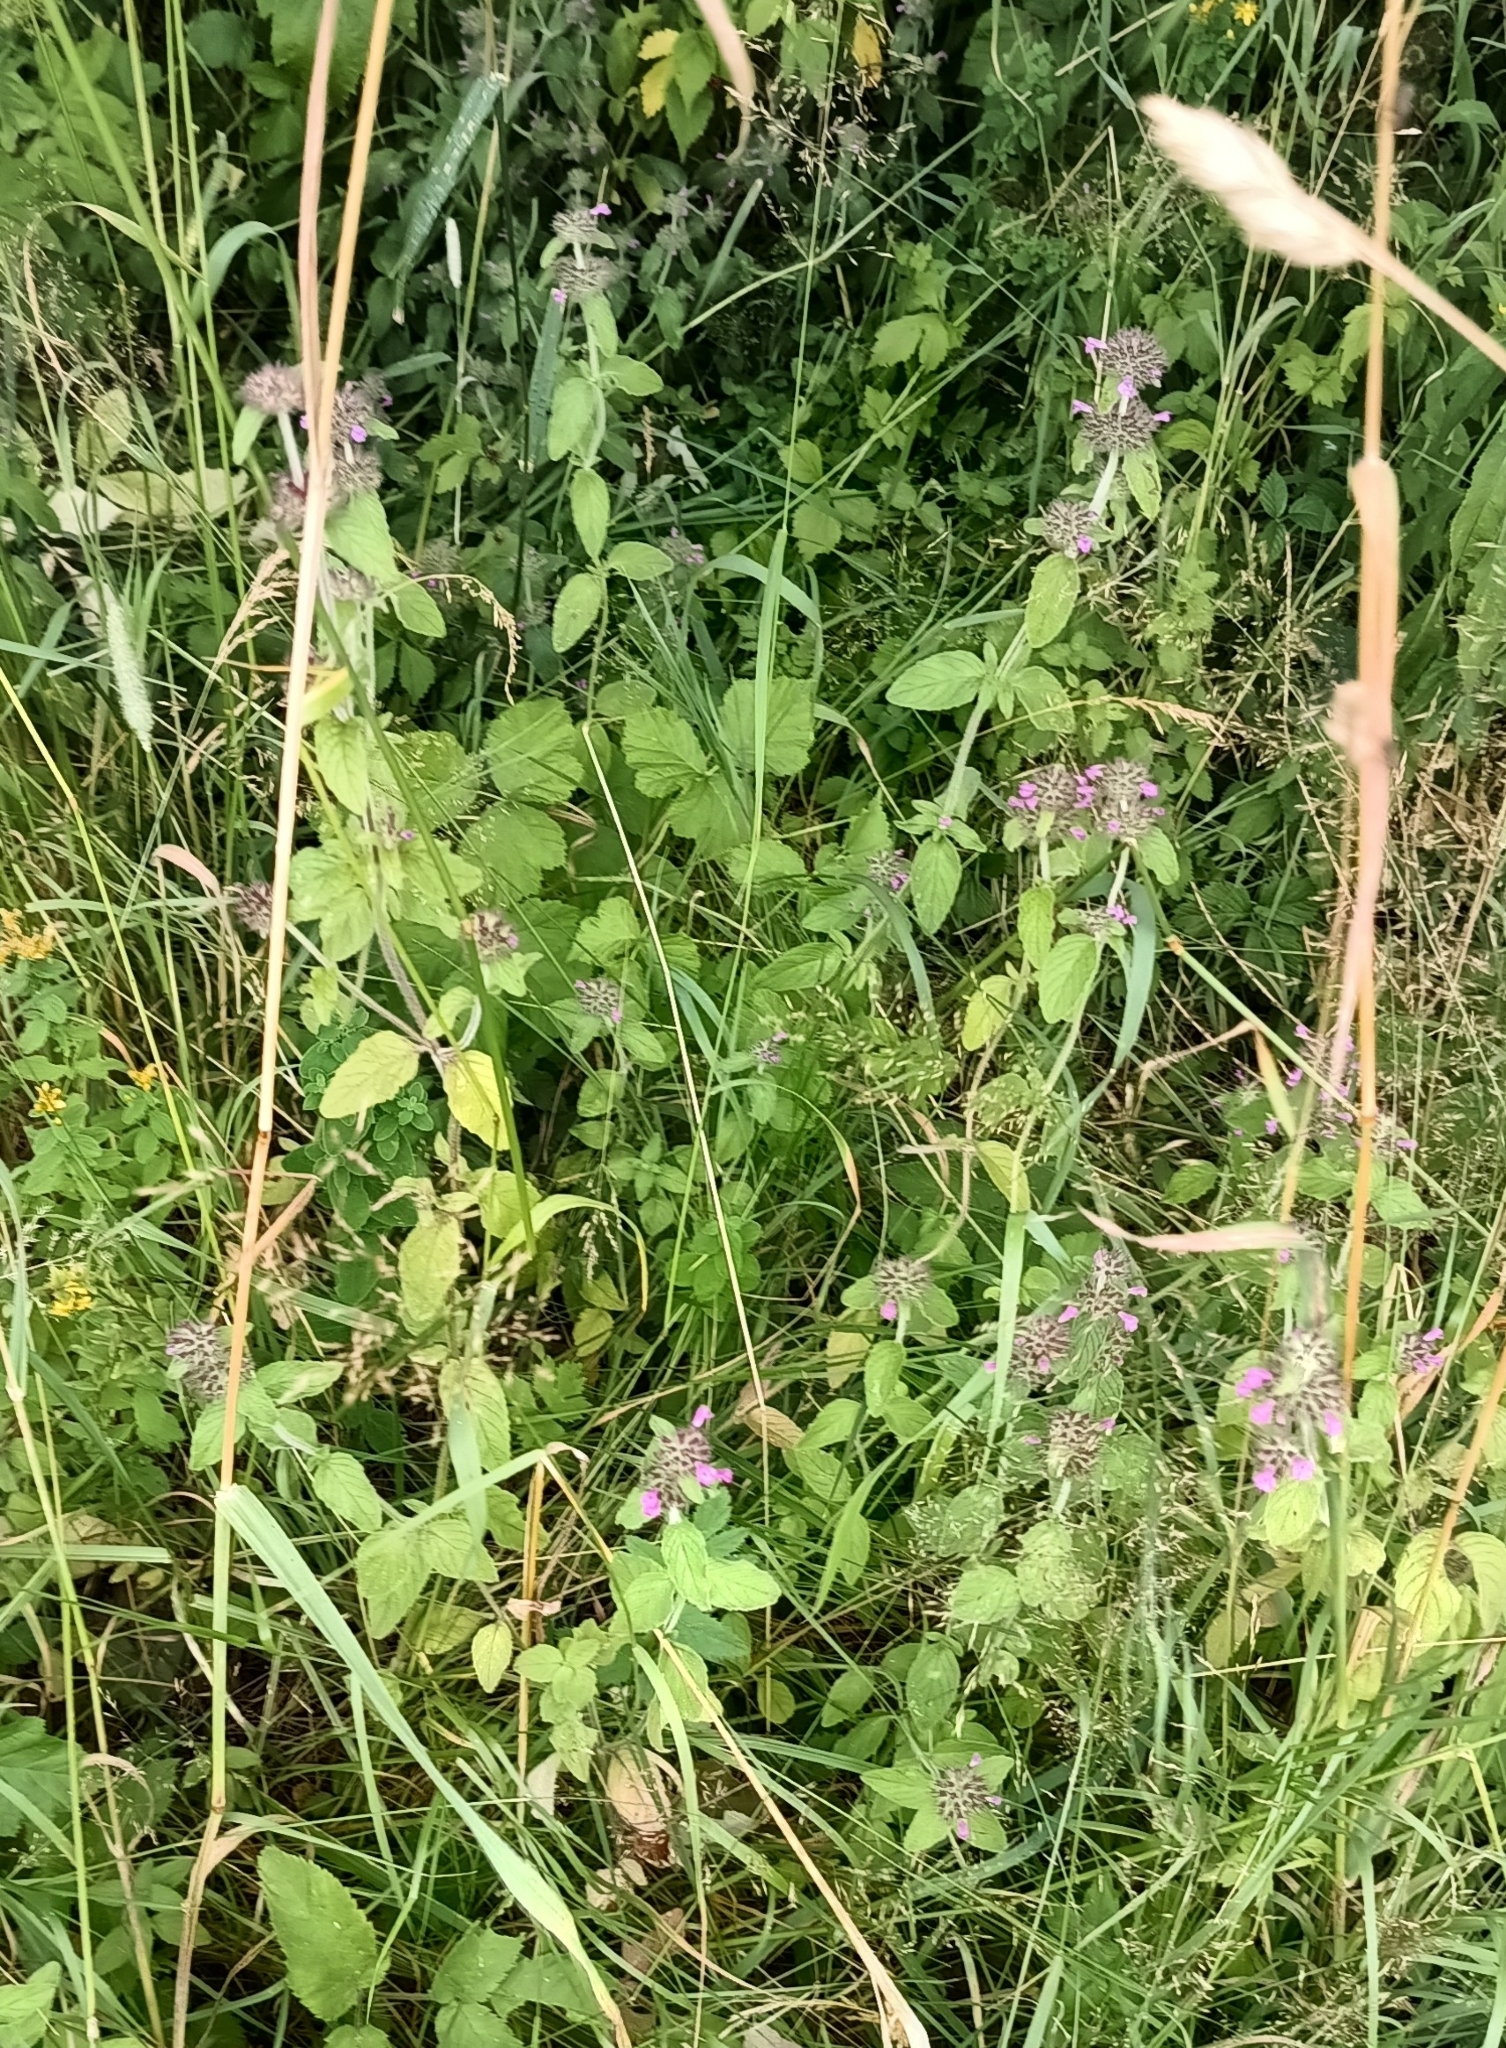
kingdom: Plantae
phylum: Tracheophyta
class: Magnoliopsida
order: Lamiales
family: Lamiaceae
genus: Clinopodium
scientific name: Clinopodium vulgare
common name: Wild basil
